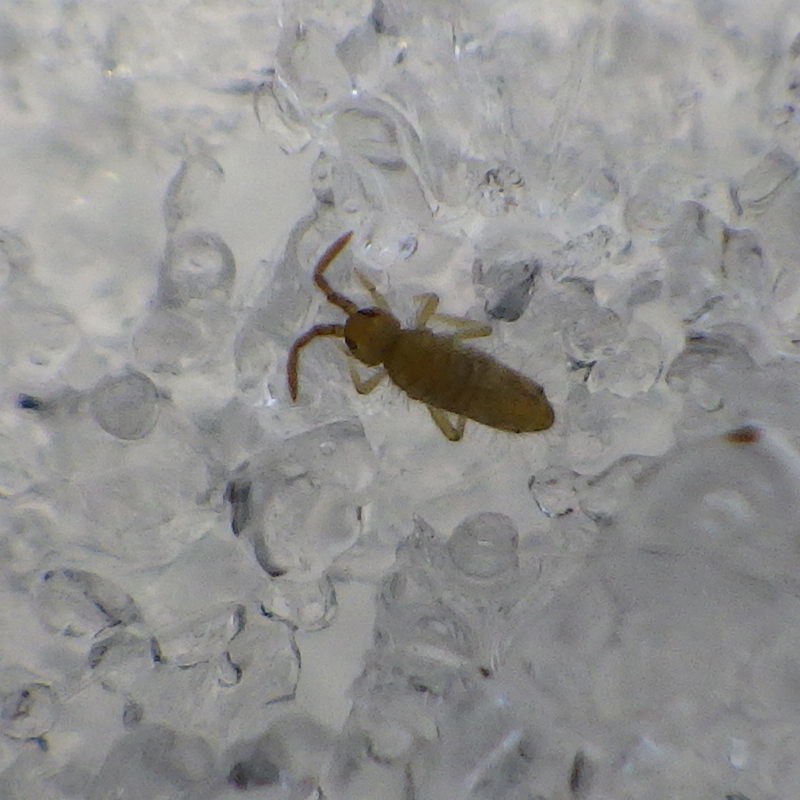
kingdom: Animalia
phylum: Arthropoda
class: Collembola
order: Entomobryomorpha
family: Entomobryidae
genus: Entomobrya
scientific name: Entomobrya nivalis
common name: Cosmopolitan springtail
